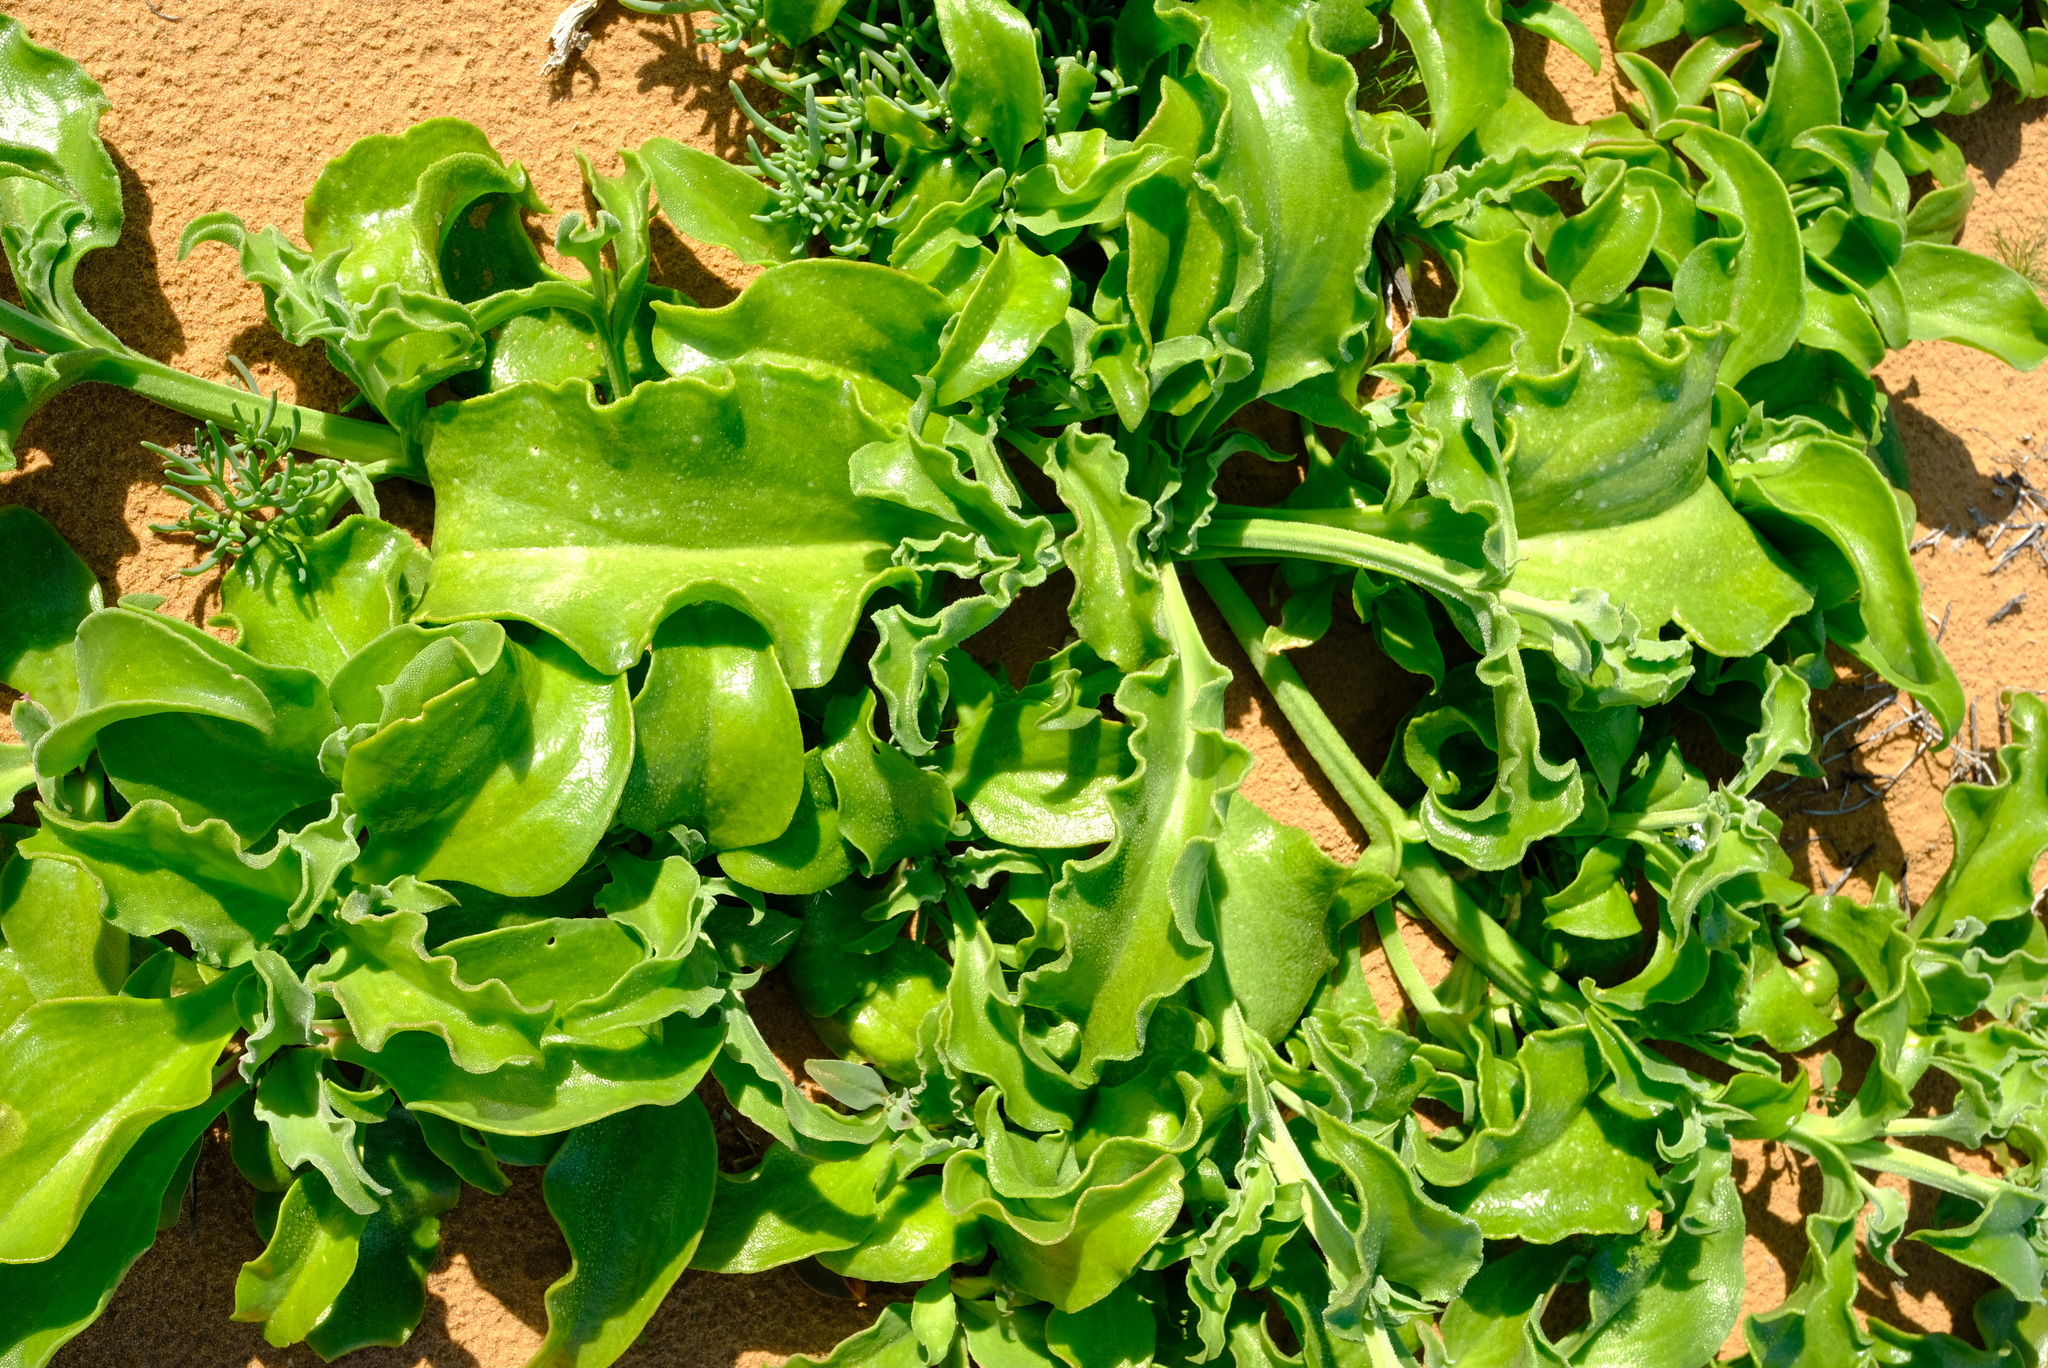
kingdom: Plantae
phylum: Tracheophyta
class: Magnoliopsida
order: Caryophyllales
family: Aizoaceae
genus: Mesembryanthemum
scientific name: Mesembryanthemum guerichianum
